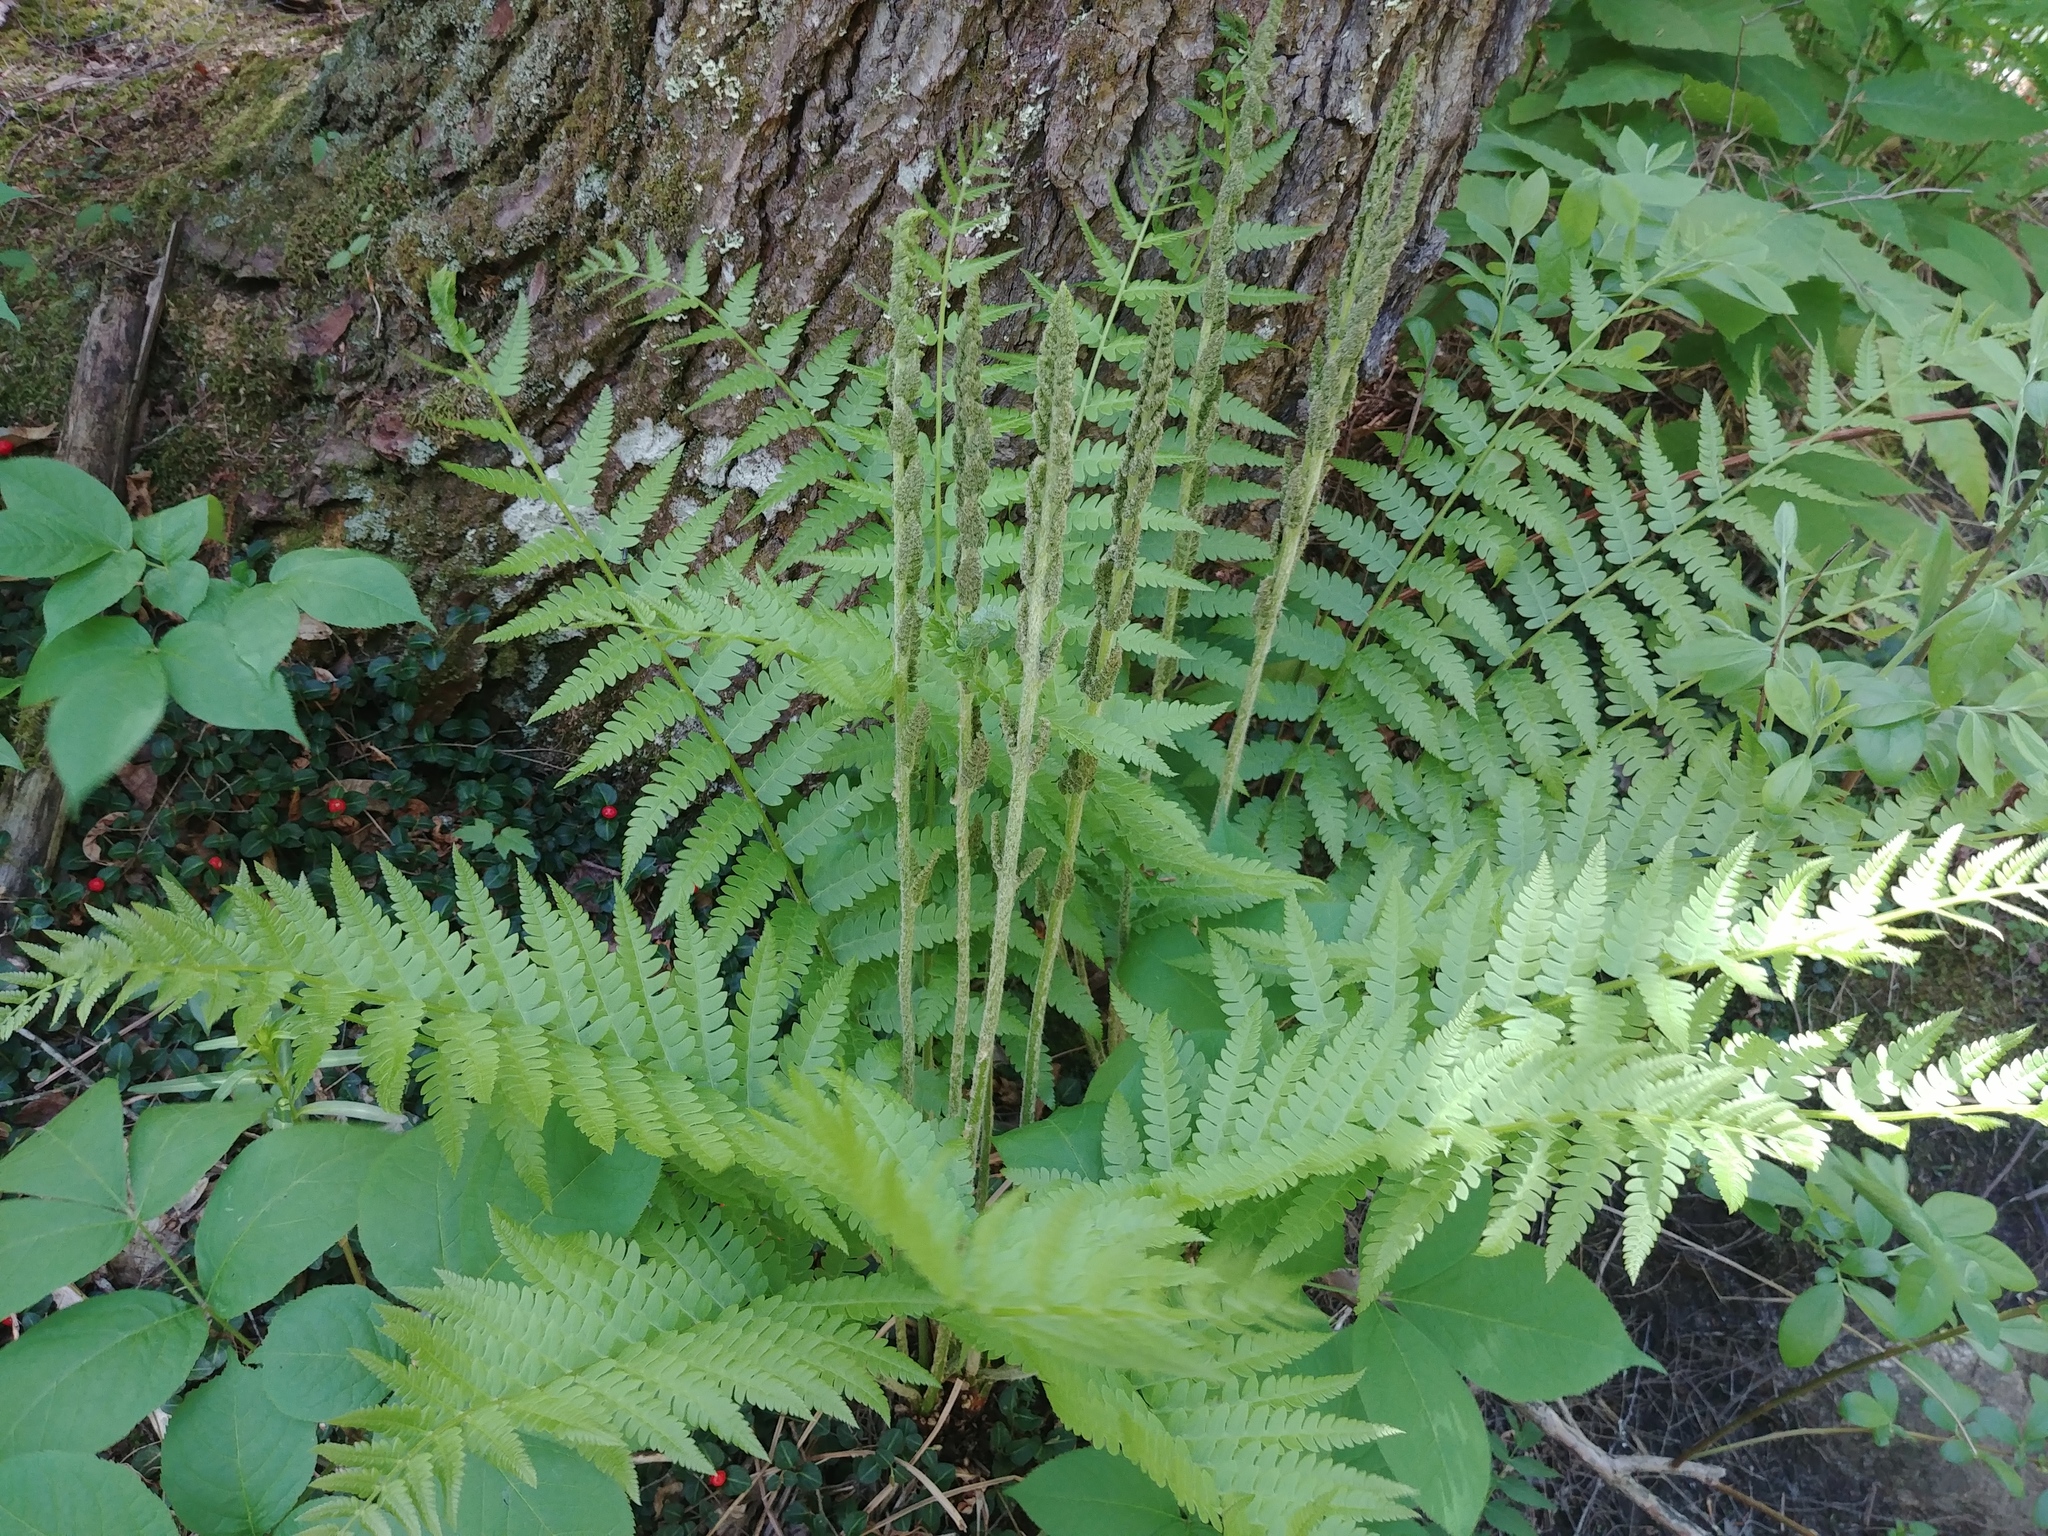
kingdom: Plantae
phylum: Tracheophyta
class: Polypodiopsida
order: Osmundales
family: Osmundaceae
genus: Osmundastrum
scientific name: Osmundastrum cinnamomeum
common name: Cinnamon fern
